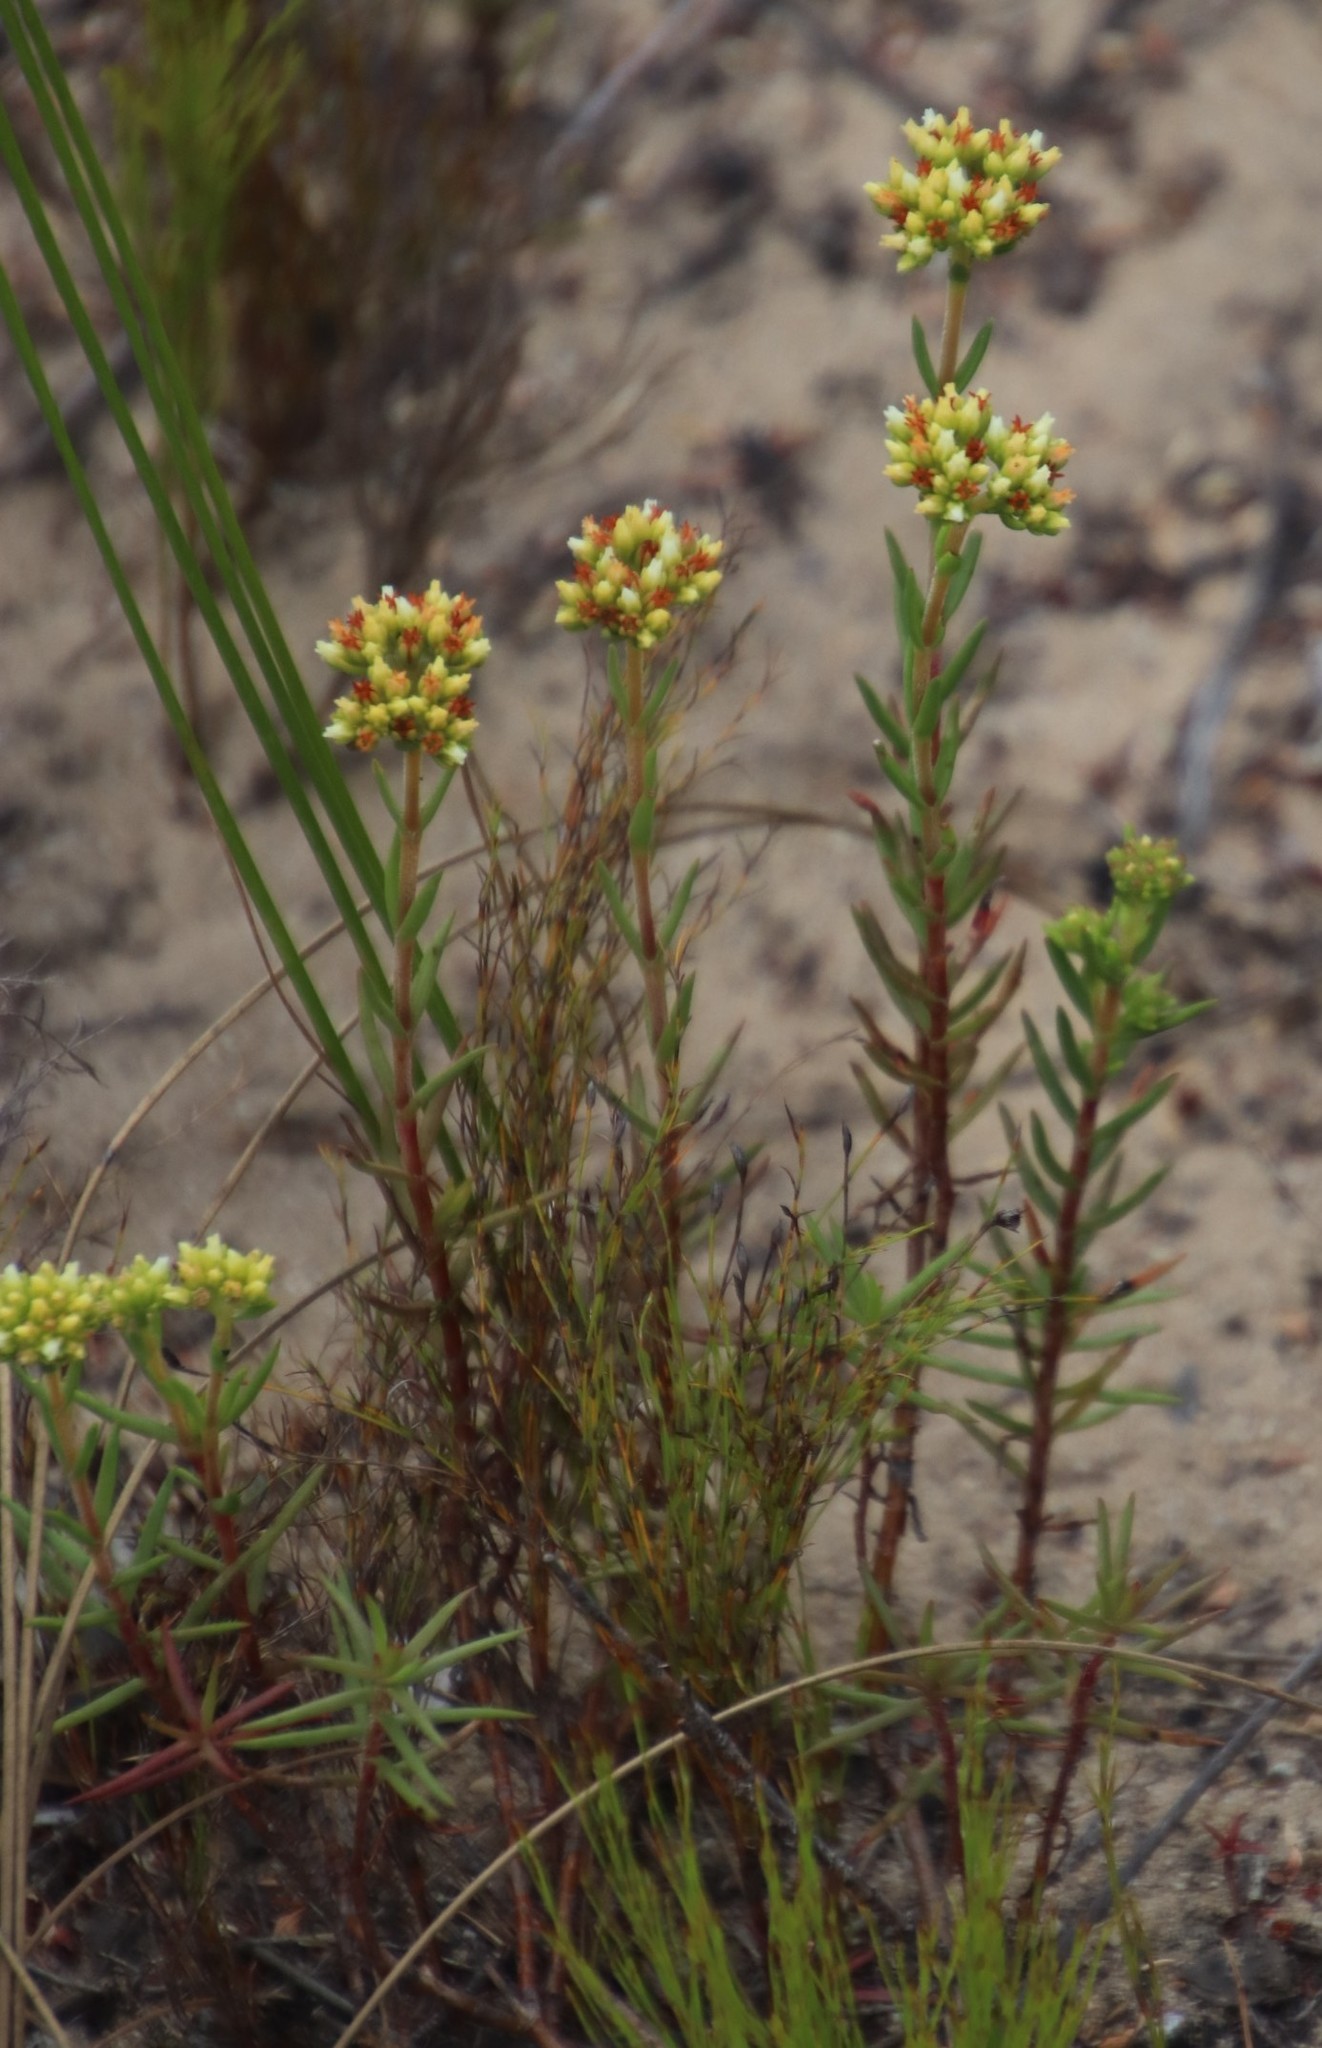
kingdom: Plantae
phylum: Tracheophyta
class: Magnoliopsida
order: Saxifragales
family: Crassulaceae
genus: Crassula
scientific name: Crassula subulata
